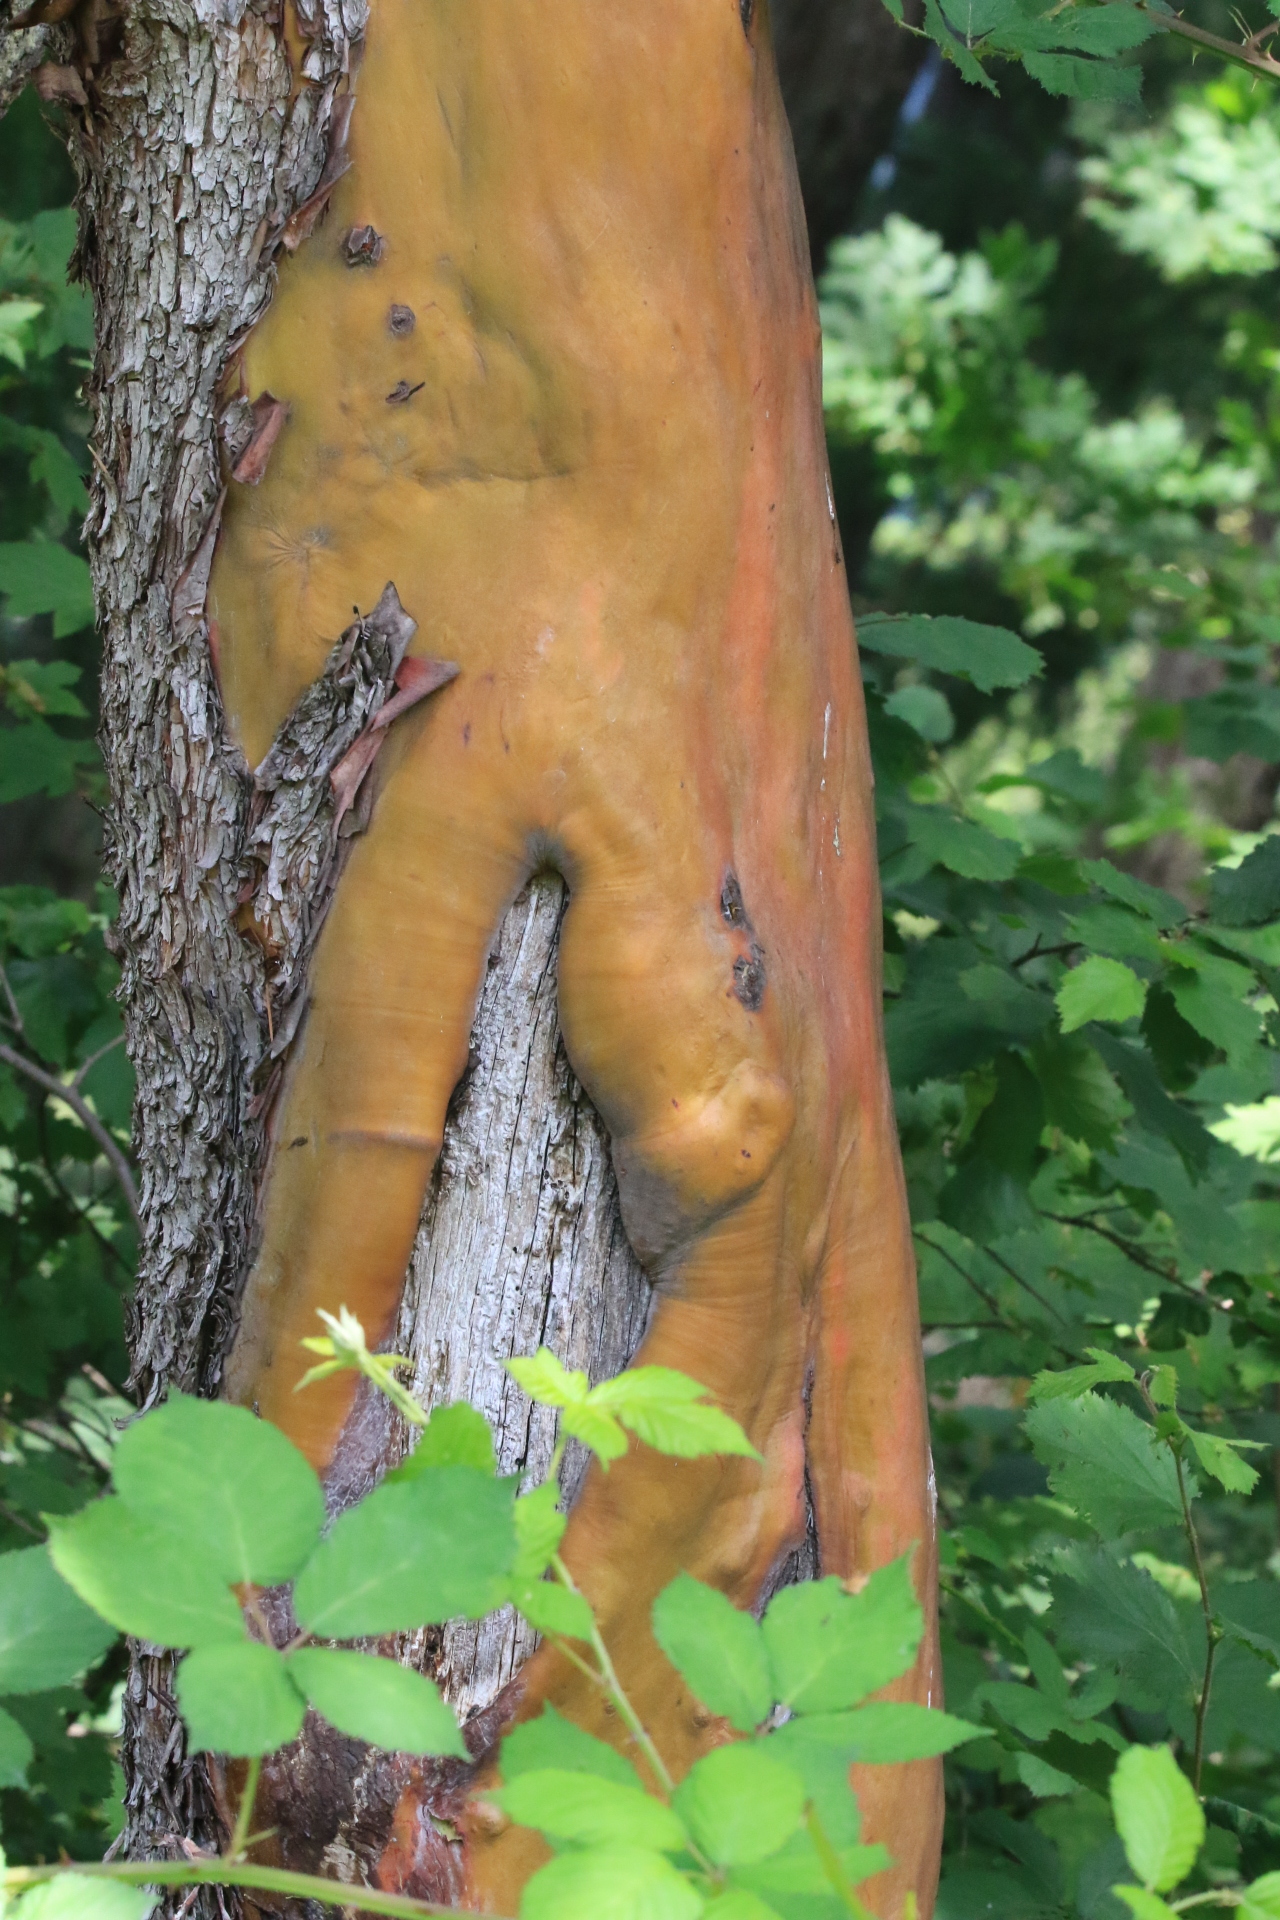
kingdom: Plantae
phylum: Tracheophyta
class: Magnoliopsida
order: Ericales
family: Ericaceae
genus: Arbutus
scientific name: Arbutus menziesii
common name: Pacific madrone
